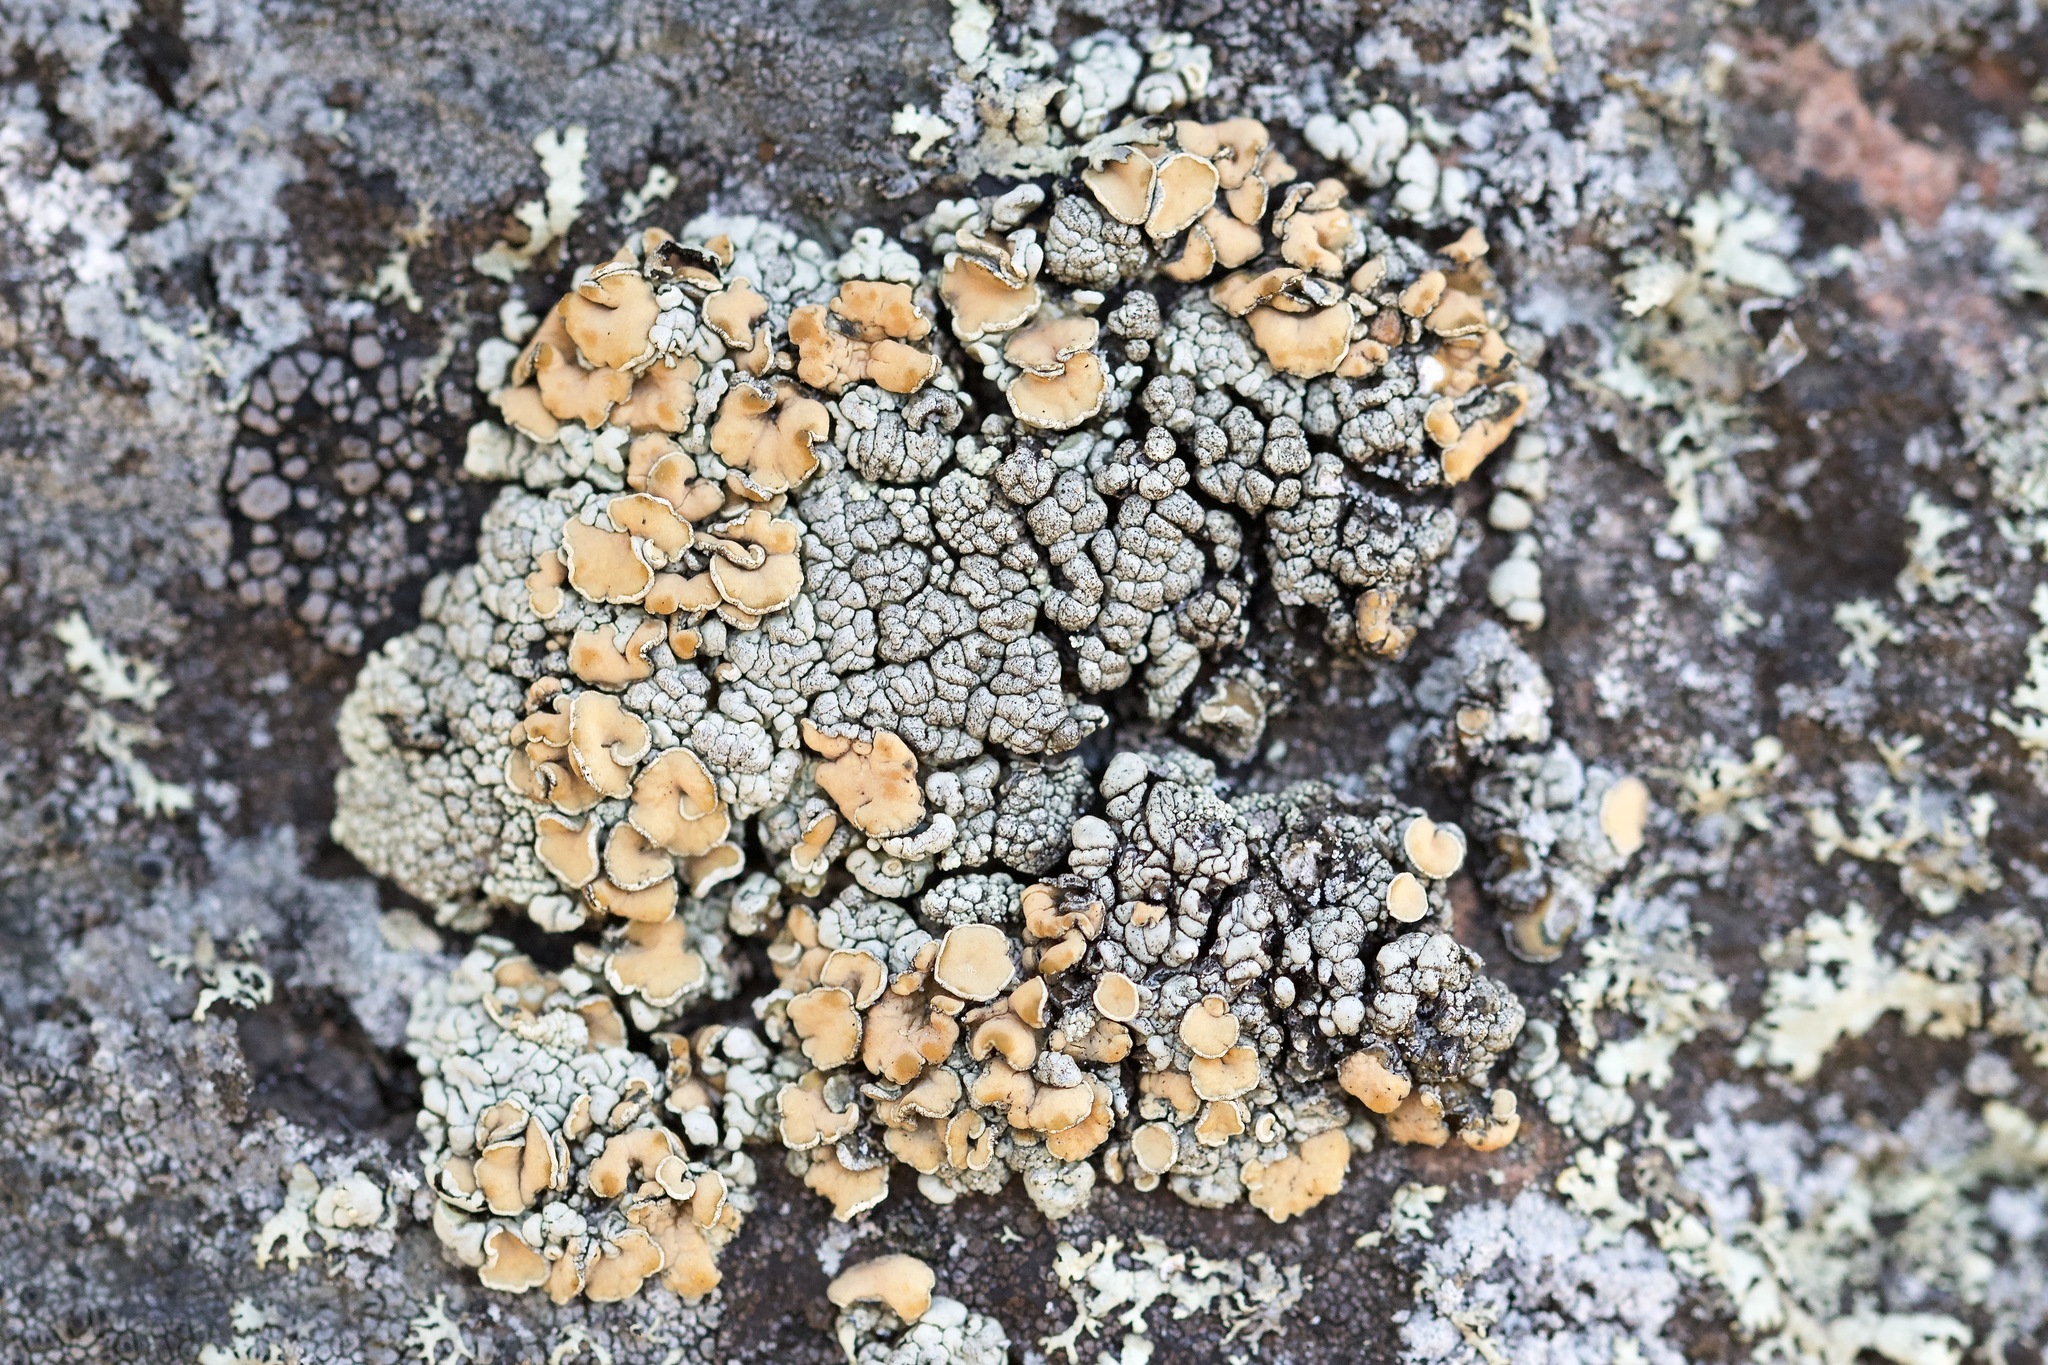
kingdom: Fungi
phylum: Ascomycota
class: Lecanoromycetes
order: Lecanorales
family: Lecanoraceae
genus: Sedelnikovaea
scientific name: Sedelnikovaea subdiscrepans
